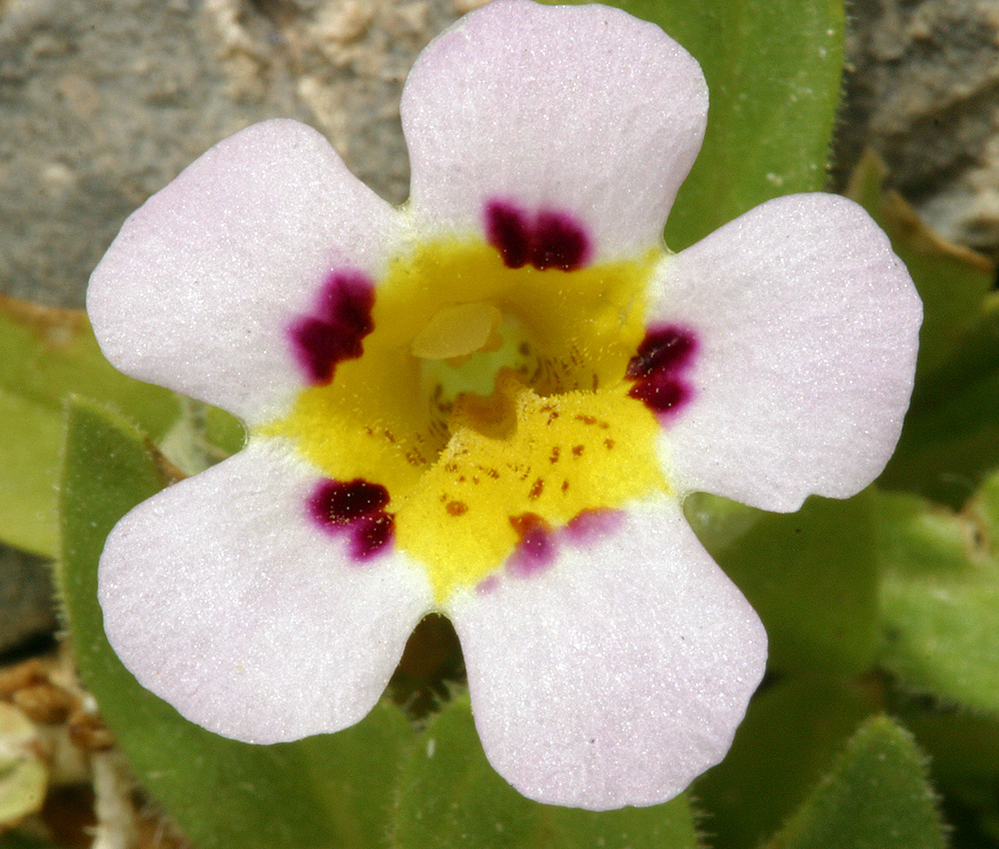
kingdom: Plantae
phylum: Tracheophyta
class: Magnoliopsida
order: Lamiales
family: Phrymaceae
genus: Diplacus
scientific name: Diplacus rupicola
